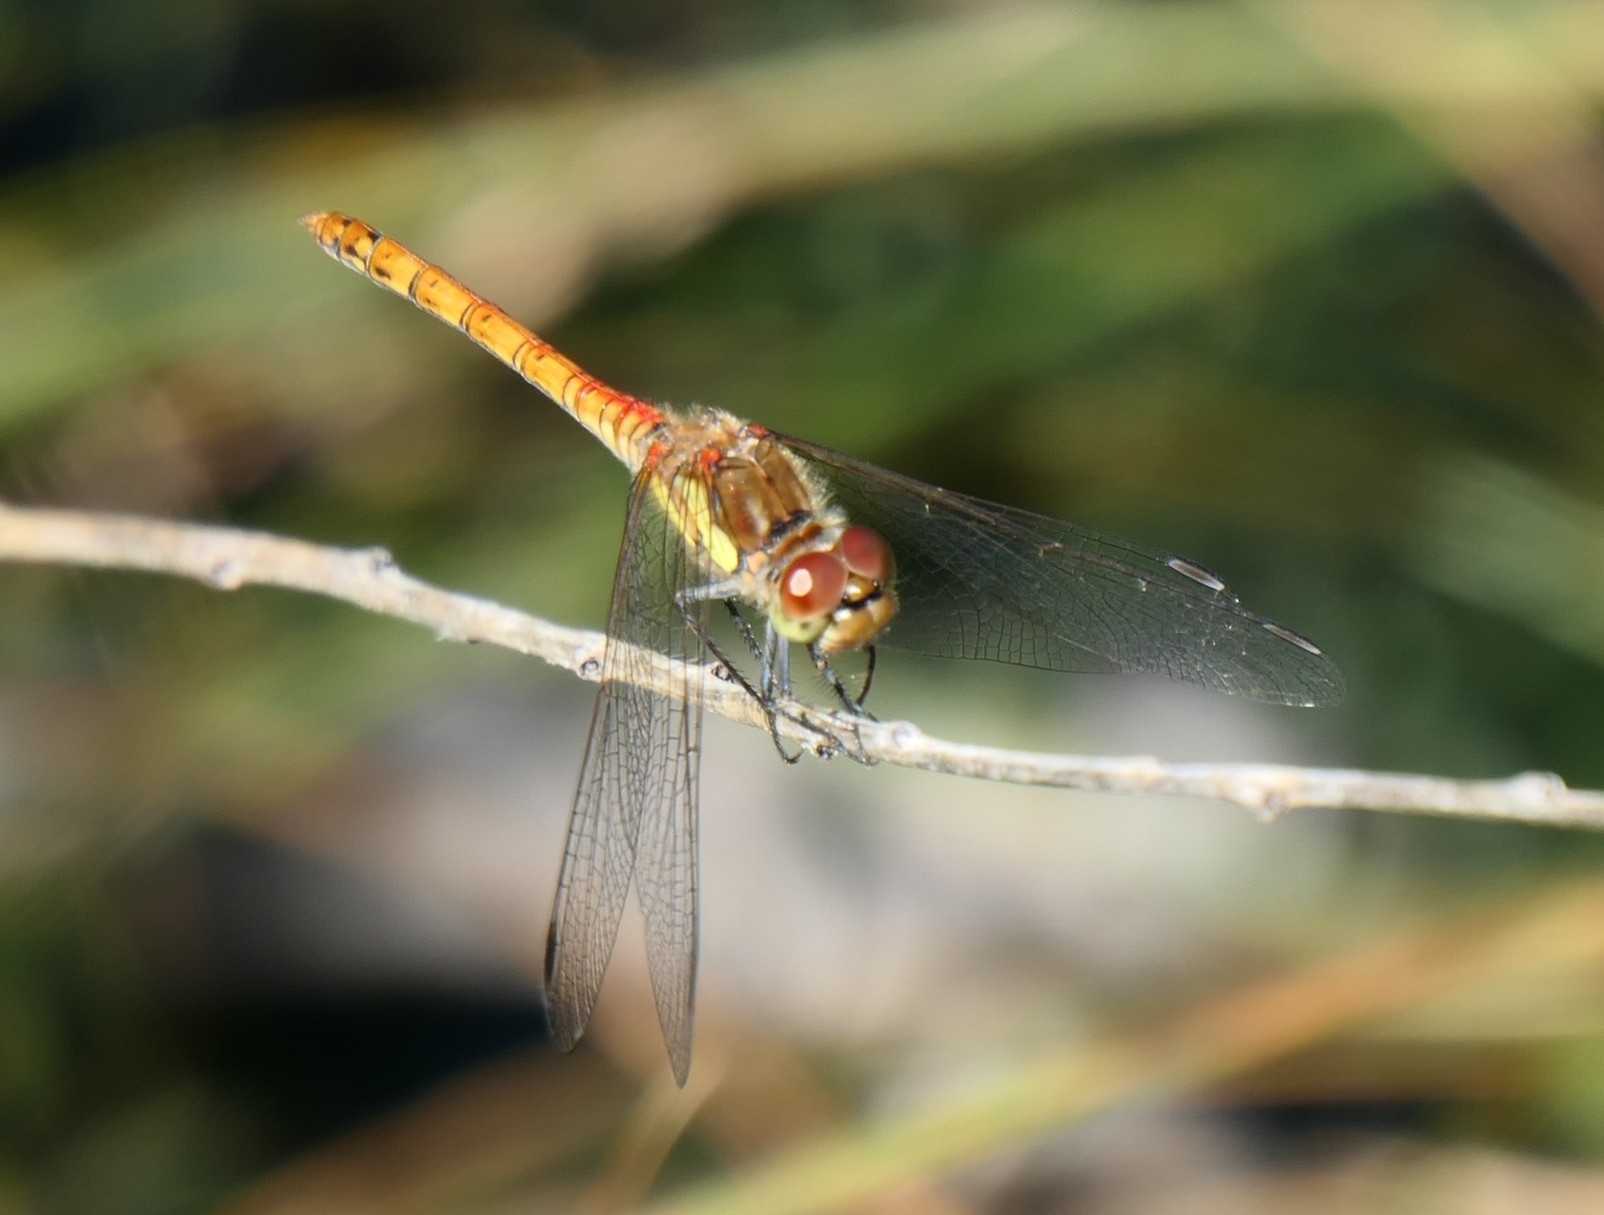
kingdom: Animalia
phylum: Arthropoda
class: Insecta
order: Odonata
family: Libellulidae
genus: Sympetrum
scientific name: Sympetrum striolatum
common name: Common darter
